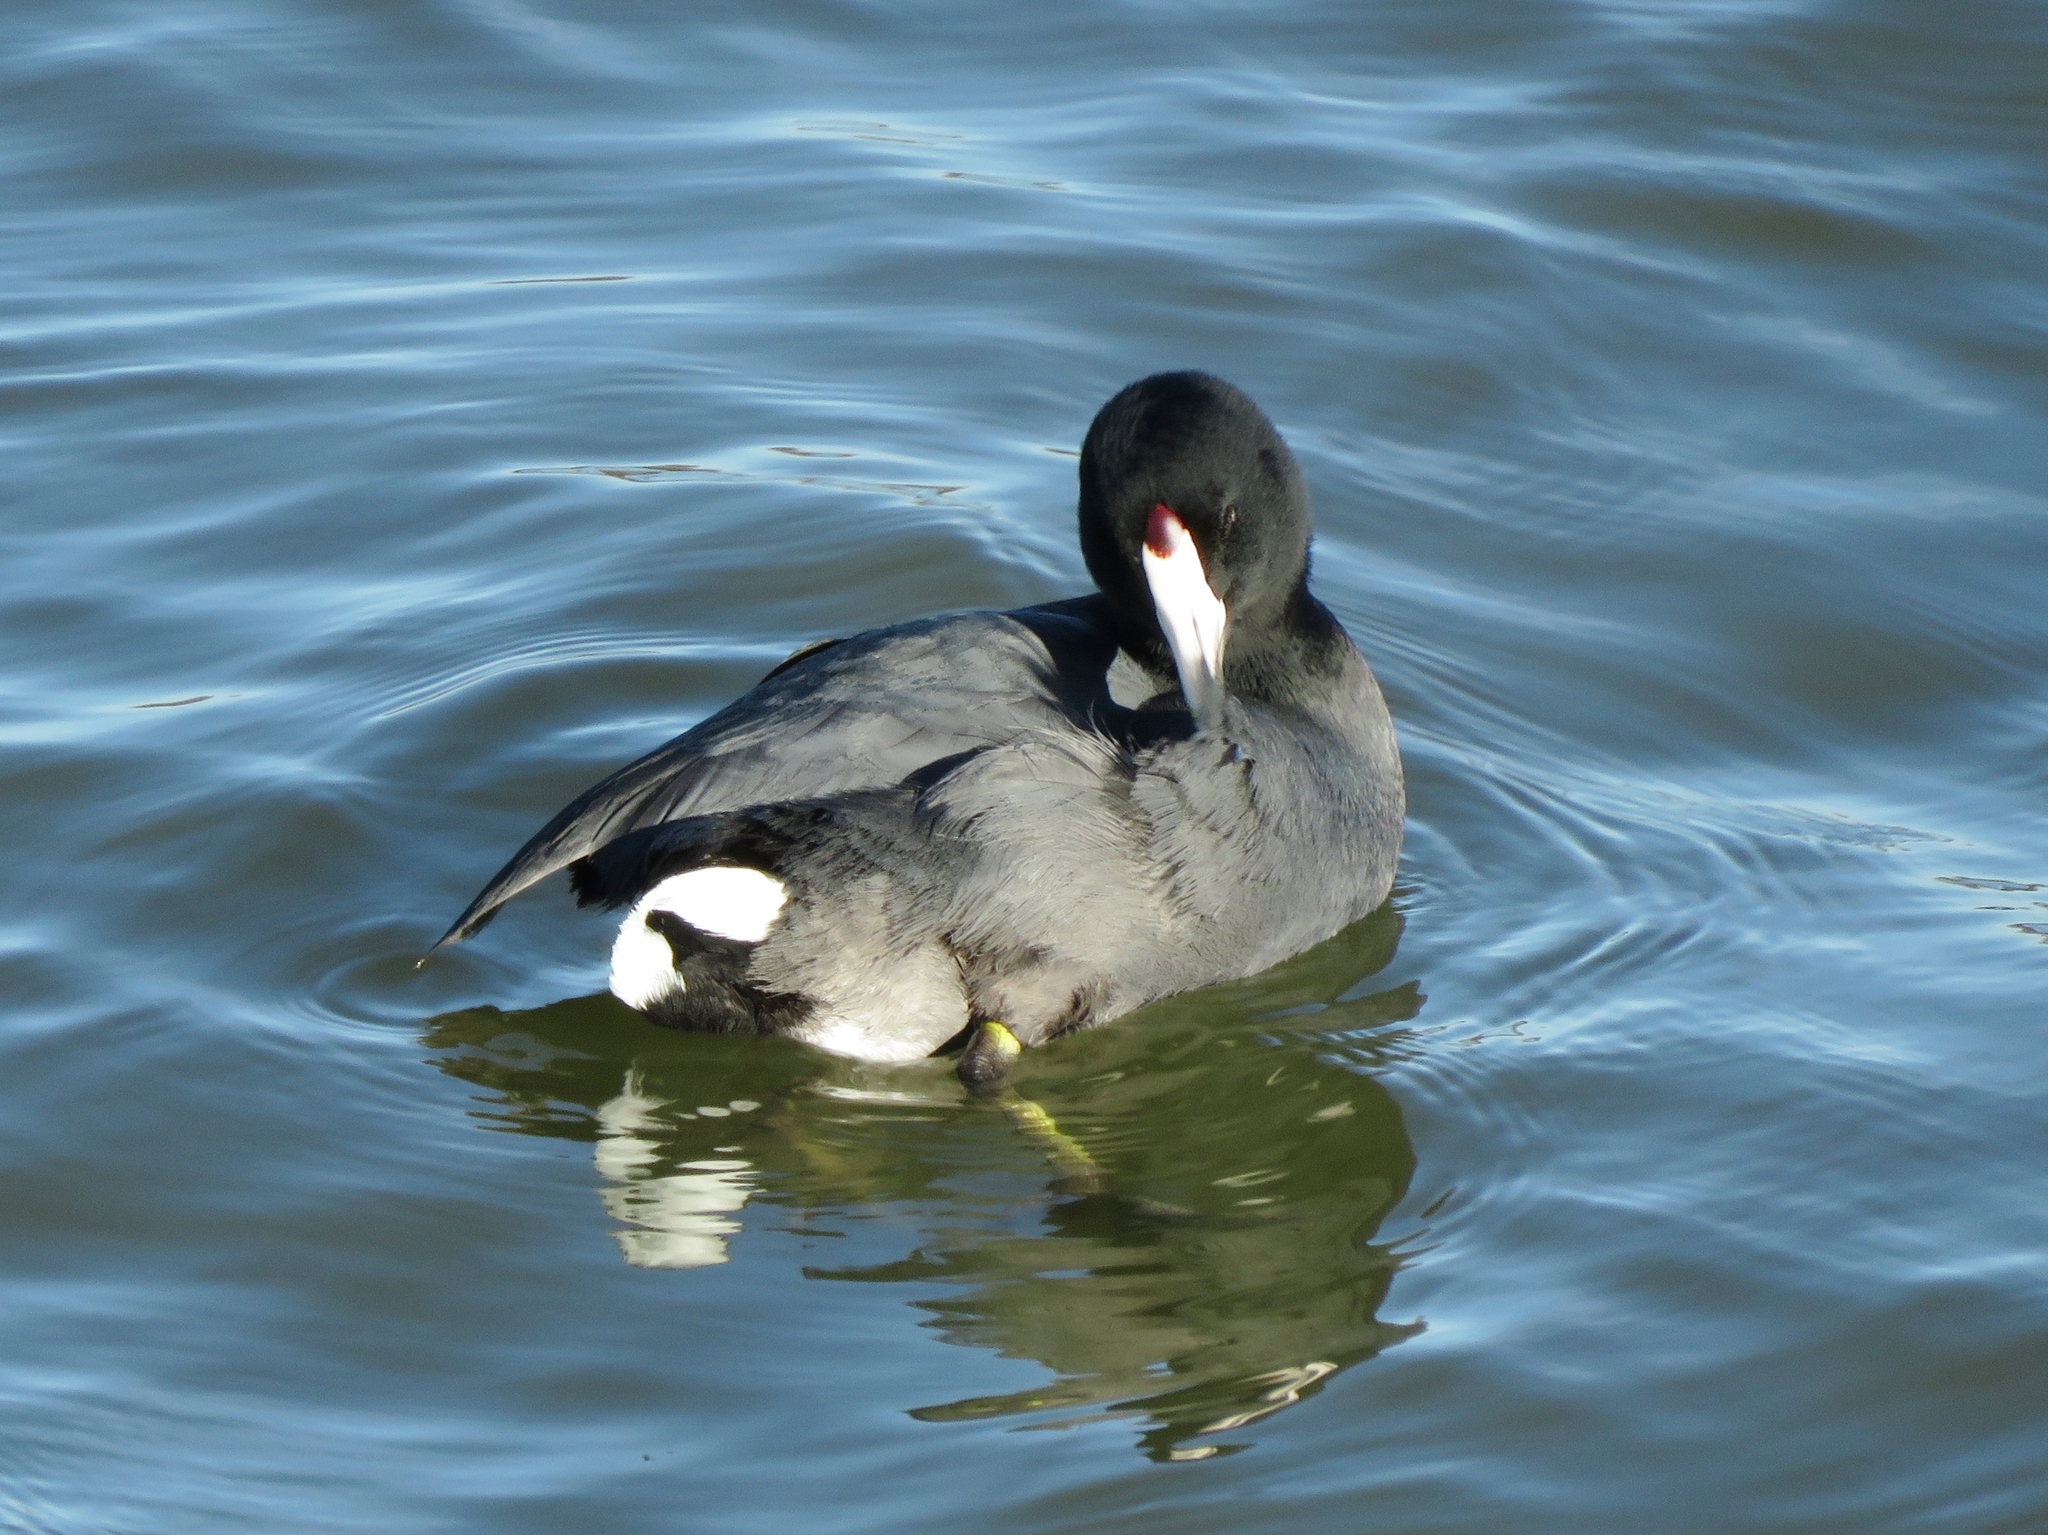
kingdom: Animalia
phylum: Chordata
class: Aves
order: Gruiformes
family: Rallidae
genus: Fulica
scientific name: Fulica americana
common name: American coot
